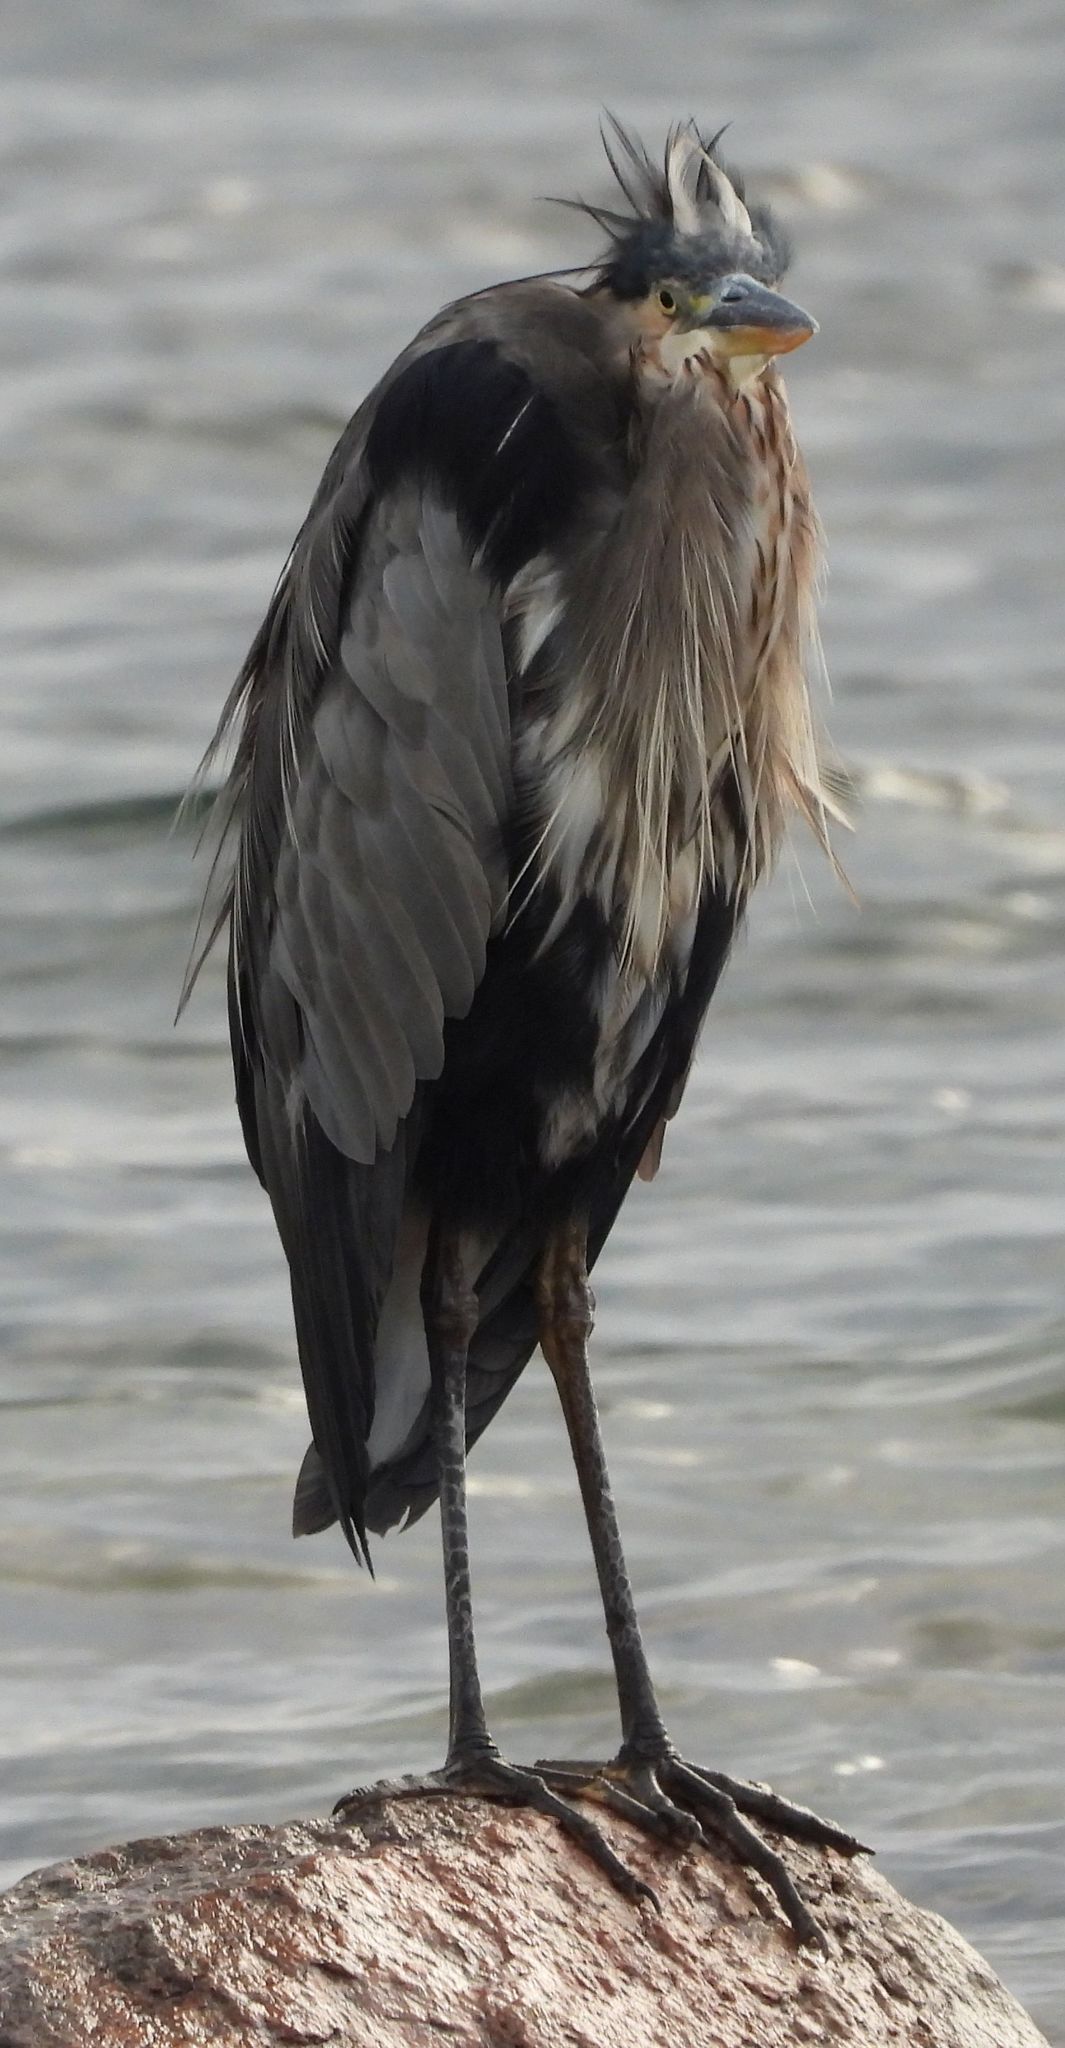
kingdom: Animalia
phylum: Chordata
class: Aves
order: Pelecaniformes
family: Ardeidae
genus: Ardea
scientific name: Ardea herodias
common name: Great blue heron
